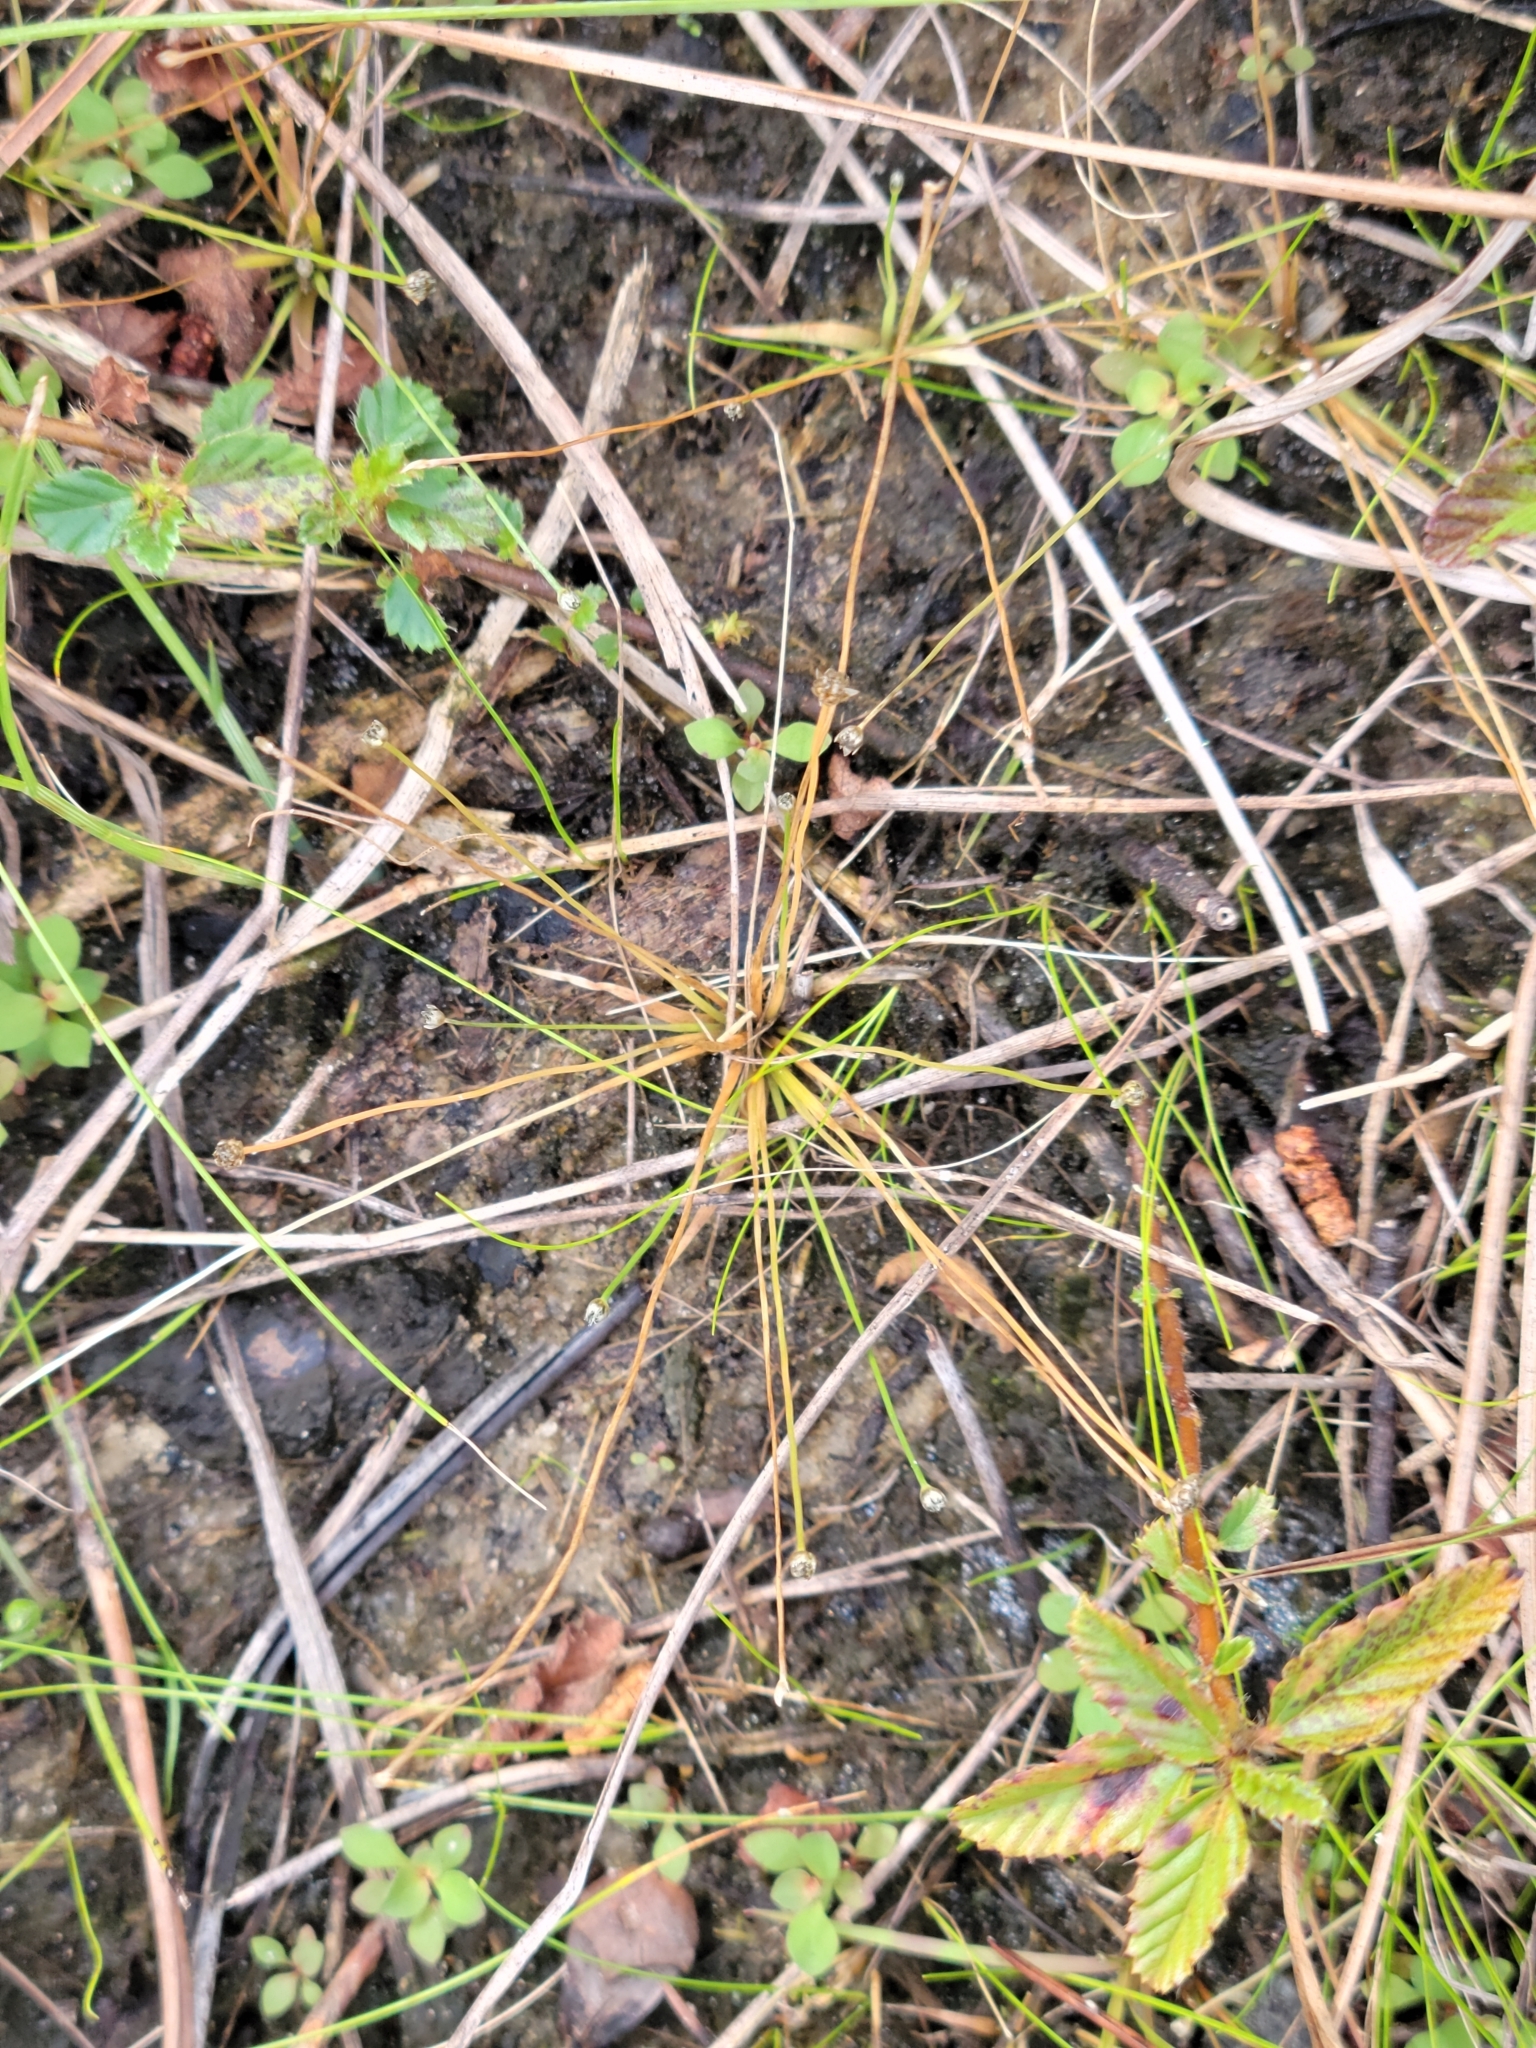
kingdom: Plantae
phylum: Tracheophyta
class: Liliopsida
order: Poales
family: Eriocaulaceae
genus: Eriocaulon
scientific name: Eriocaulon ravenelii
